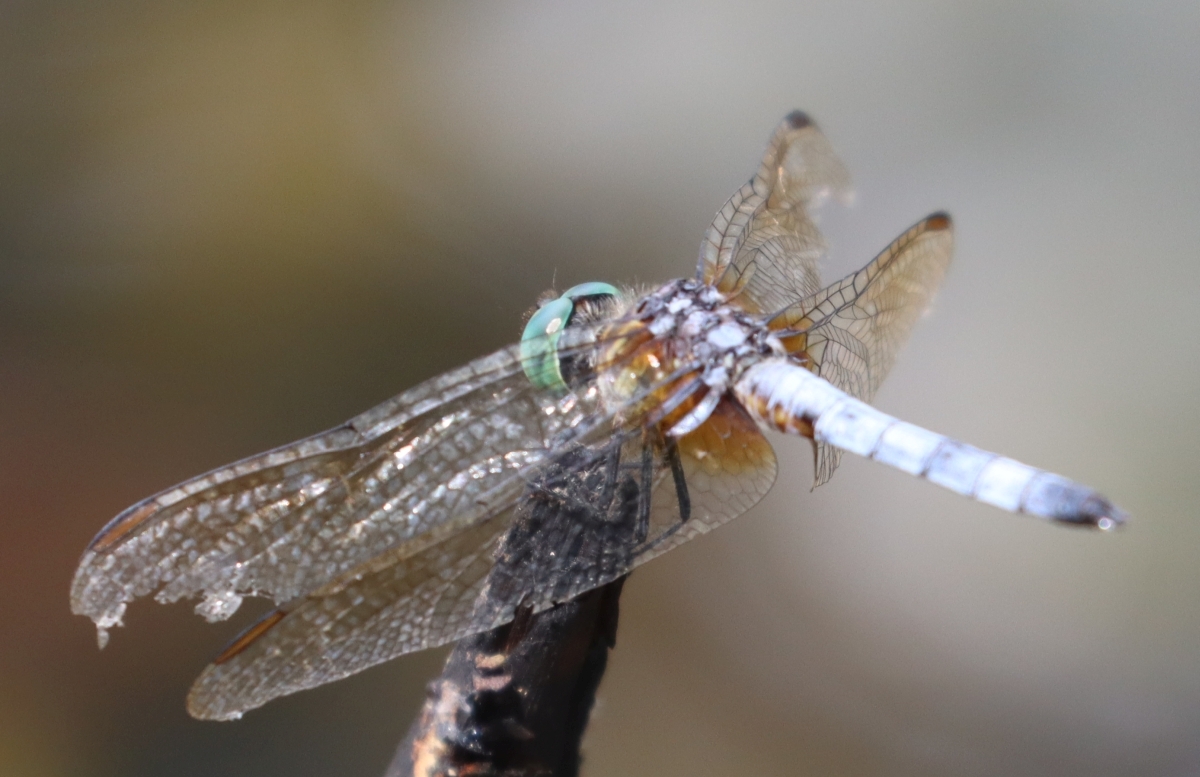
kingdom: Animalia
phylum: Arthropoda
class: Insecta
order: Odonata
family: Libellulidae
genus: Pachydiplax
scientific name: Pachydiplax longipennis
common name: Blue dasher
